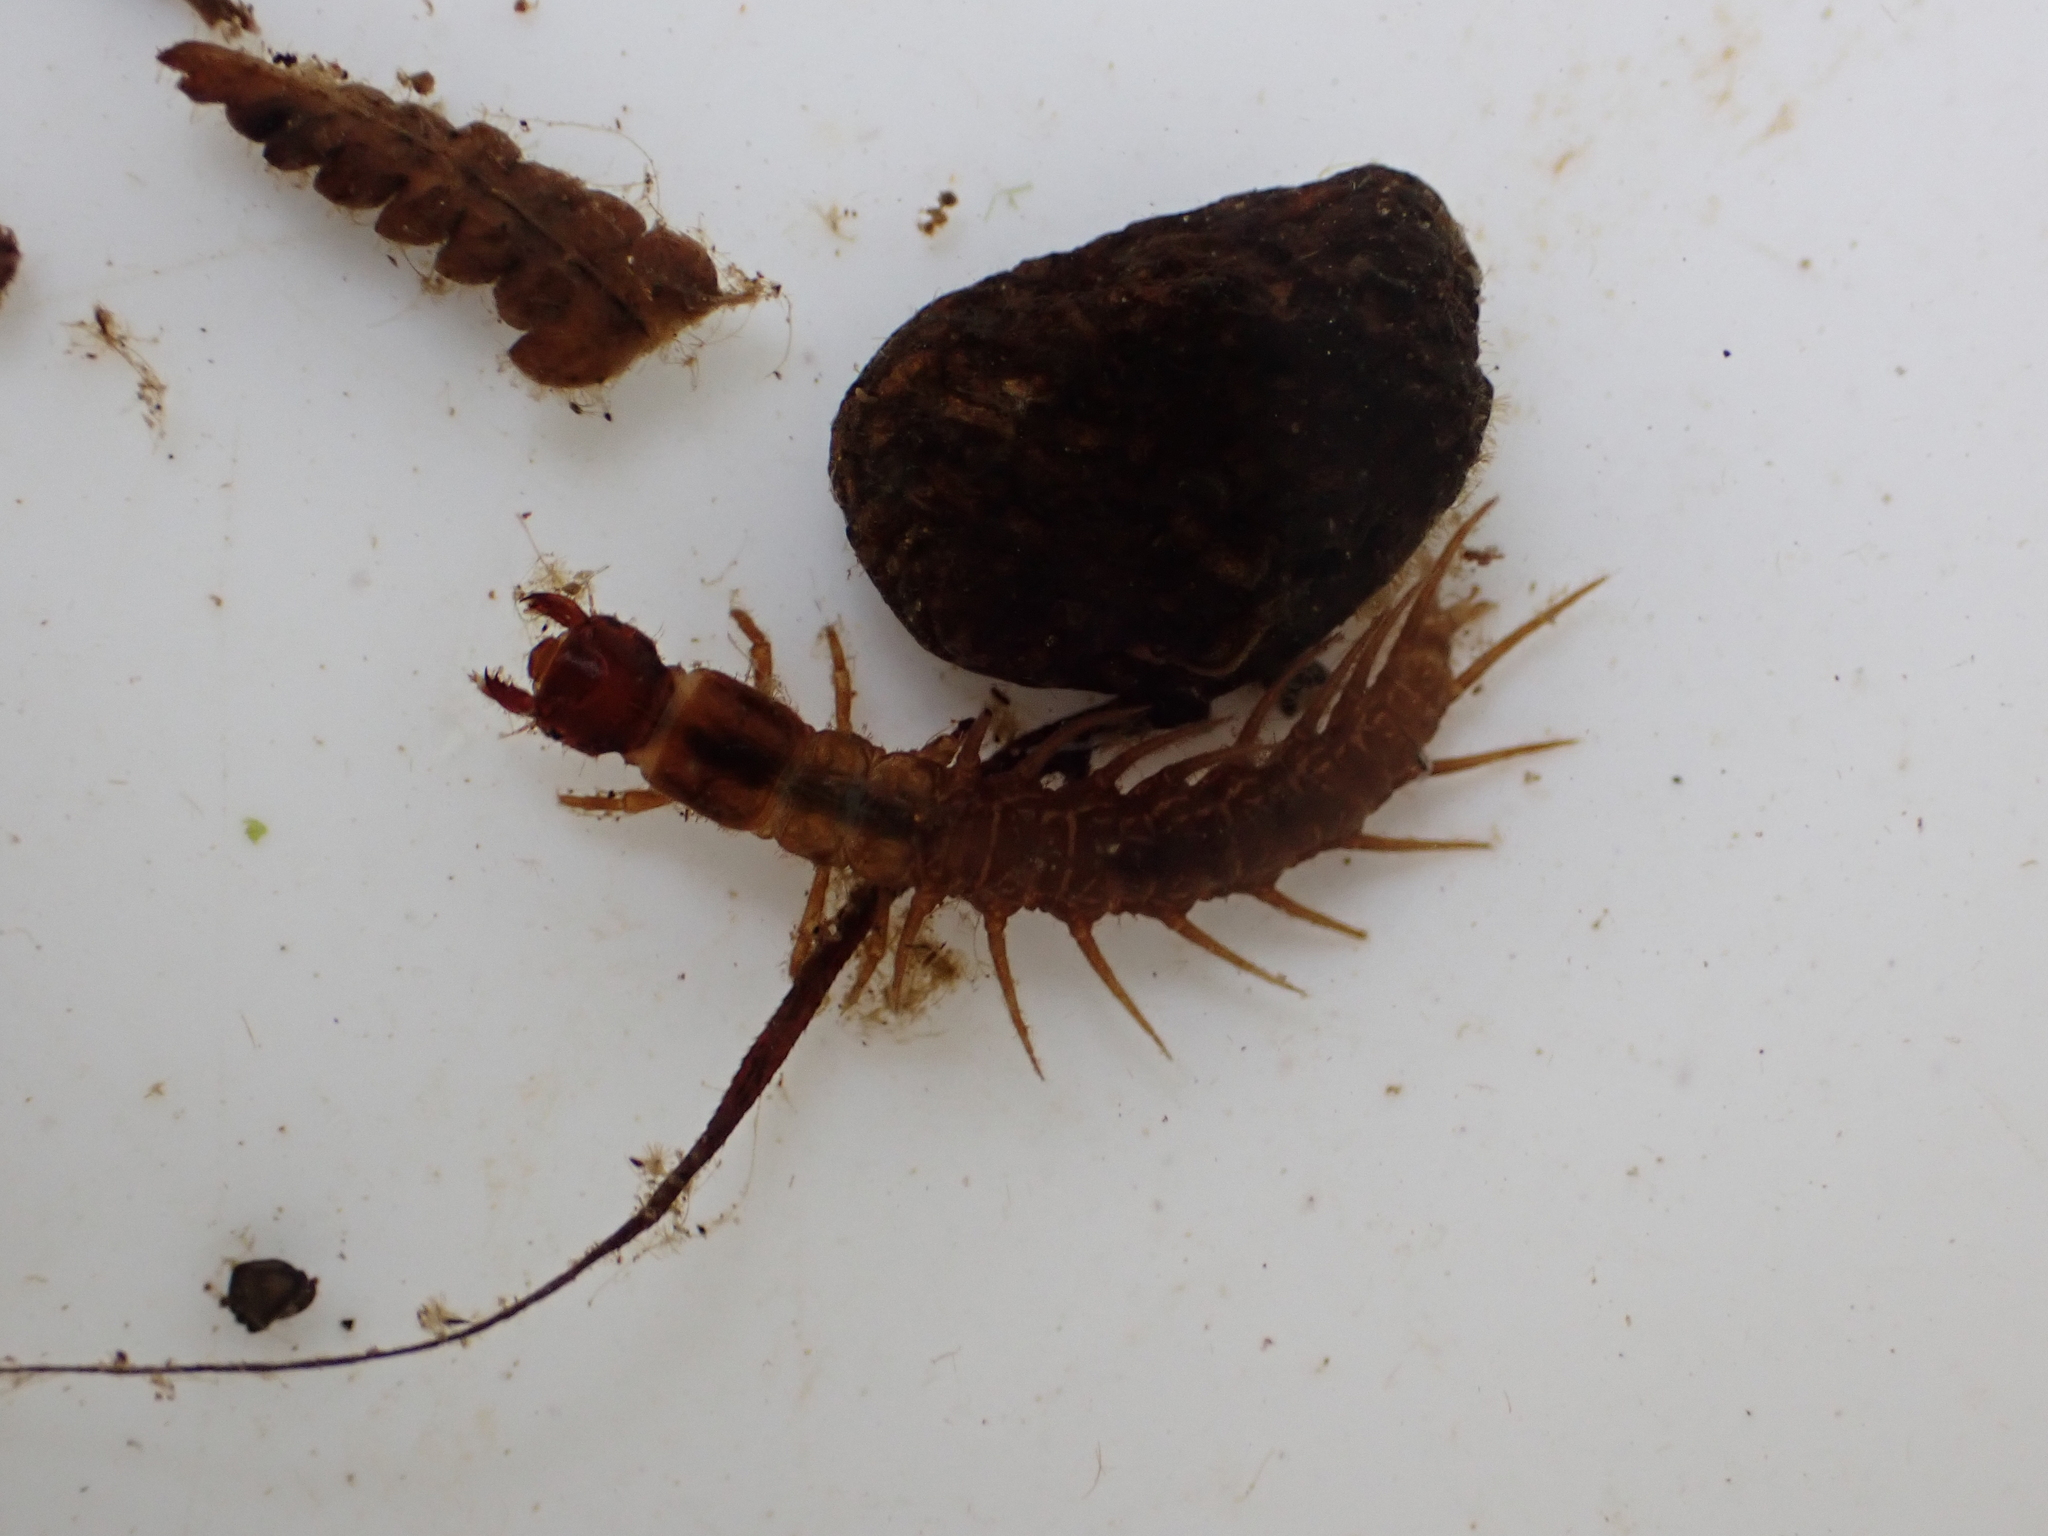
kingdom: Animalia
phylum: Arthropoda
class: Insecta
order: Megaloptera
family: Corydalidae
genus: Archichauliodes
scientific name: Archichauliodes diversus
